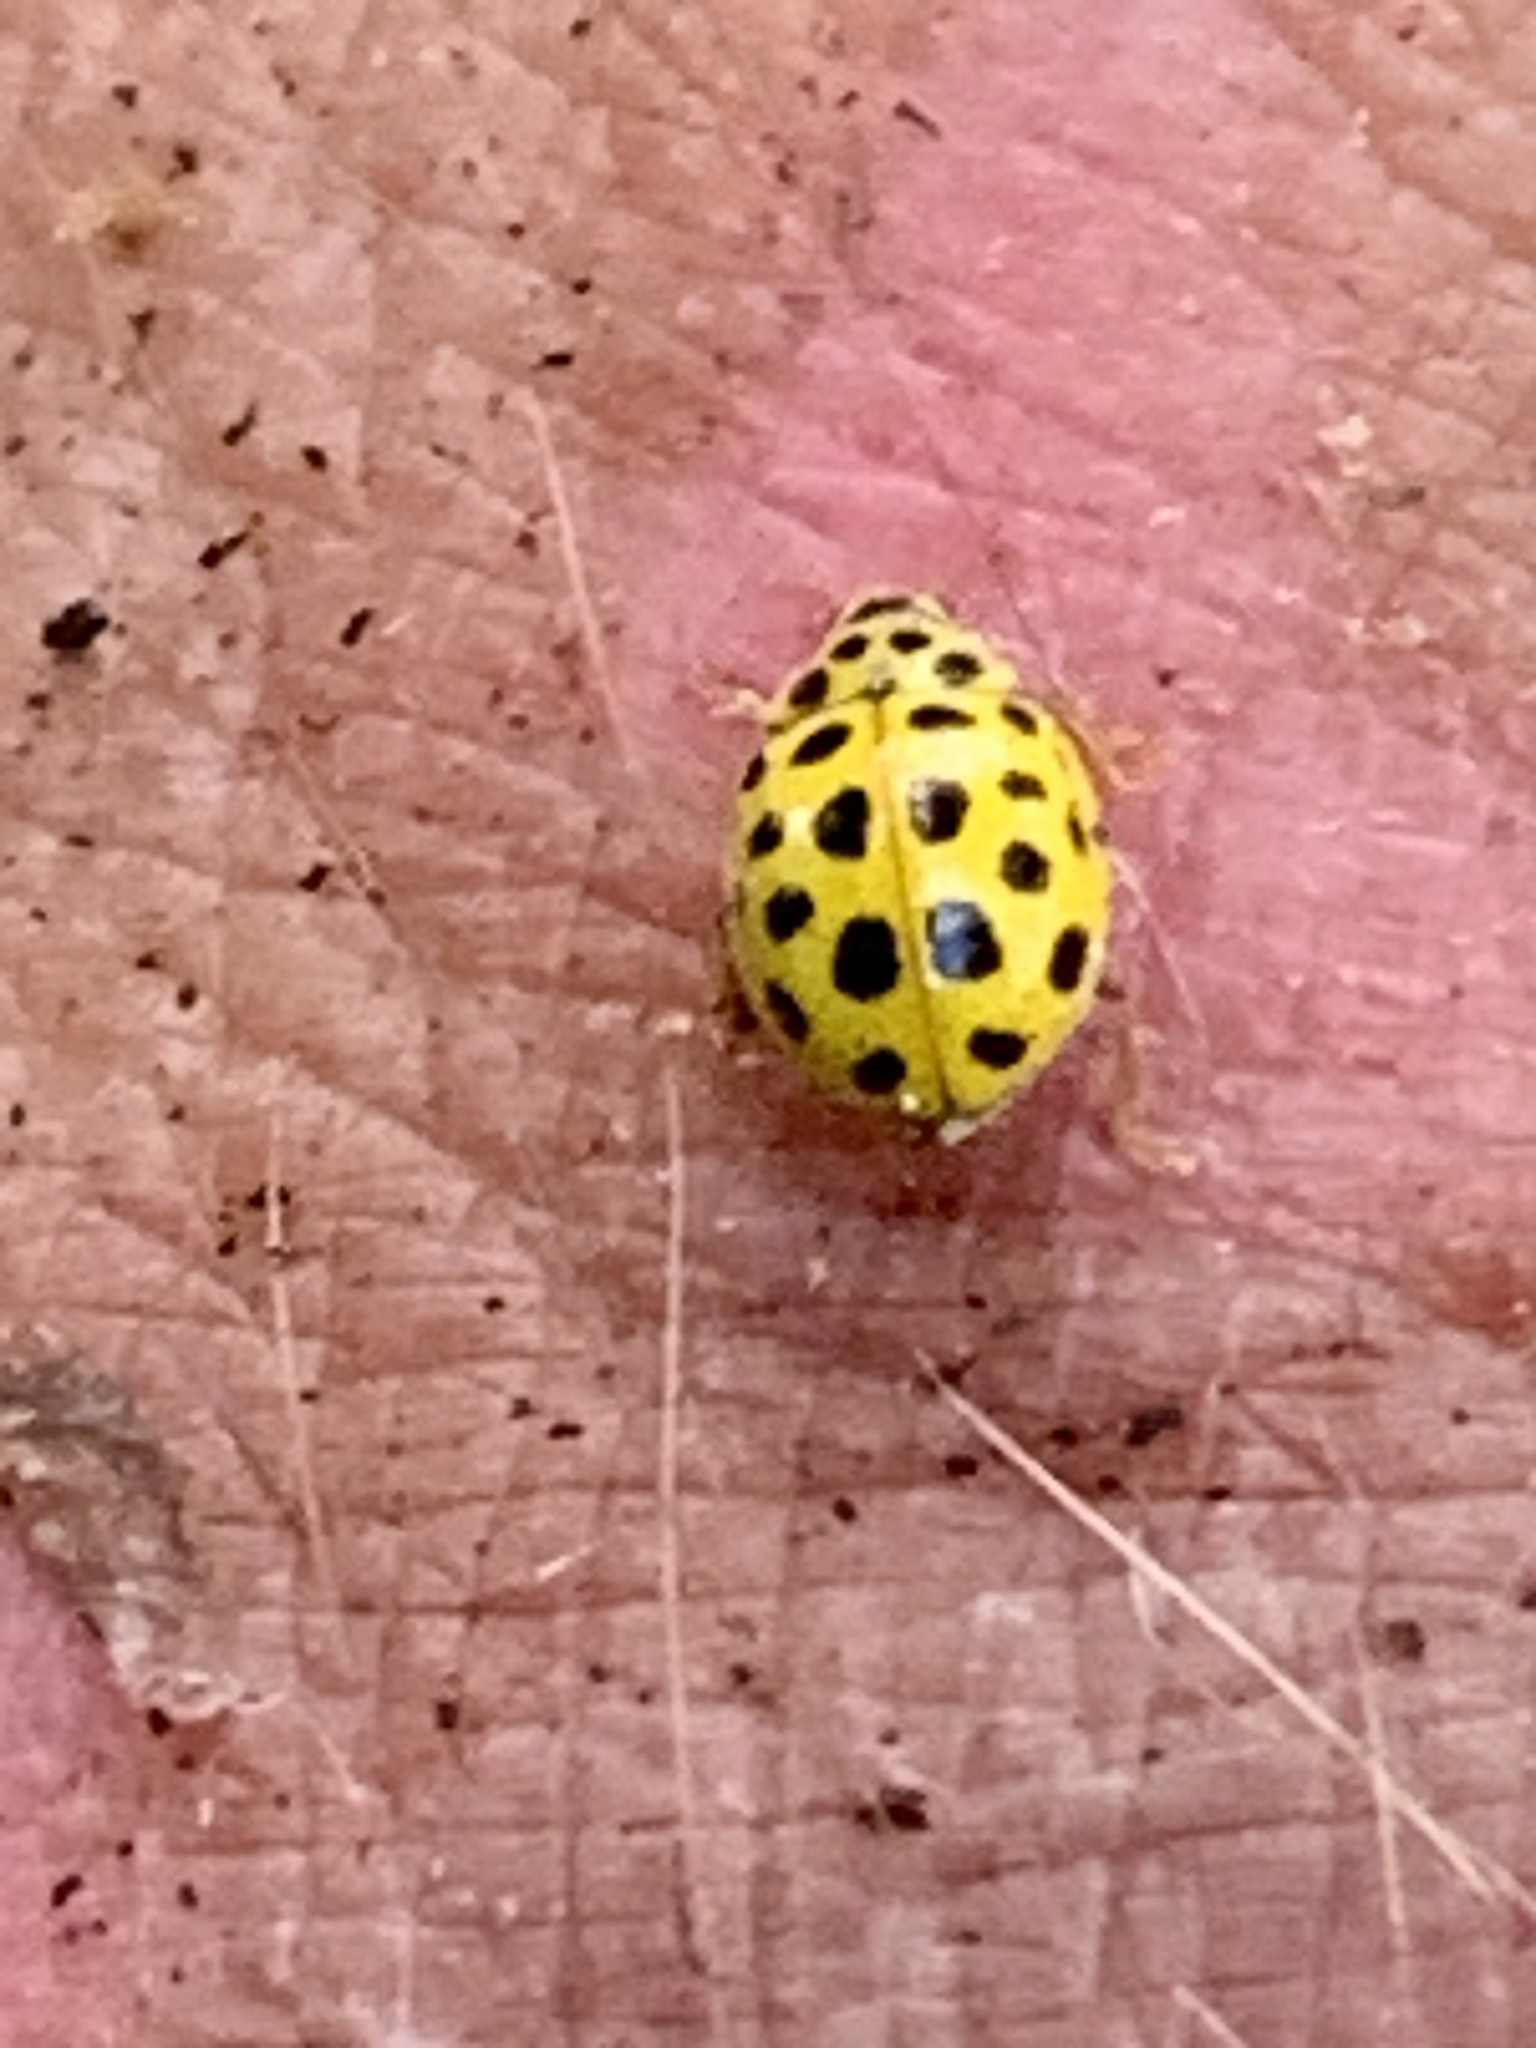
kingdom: Animalia
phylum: Arthropoda
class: Insecta
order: Coleoptera
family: Coccinellidae
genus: Psyllobora
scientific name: Psyllobora vigintiduopunctata
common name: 22-spot ladybird
